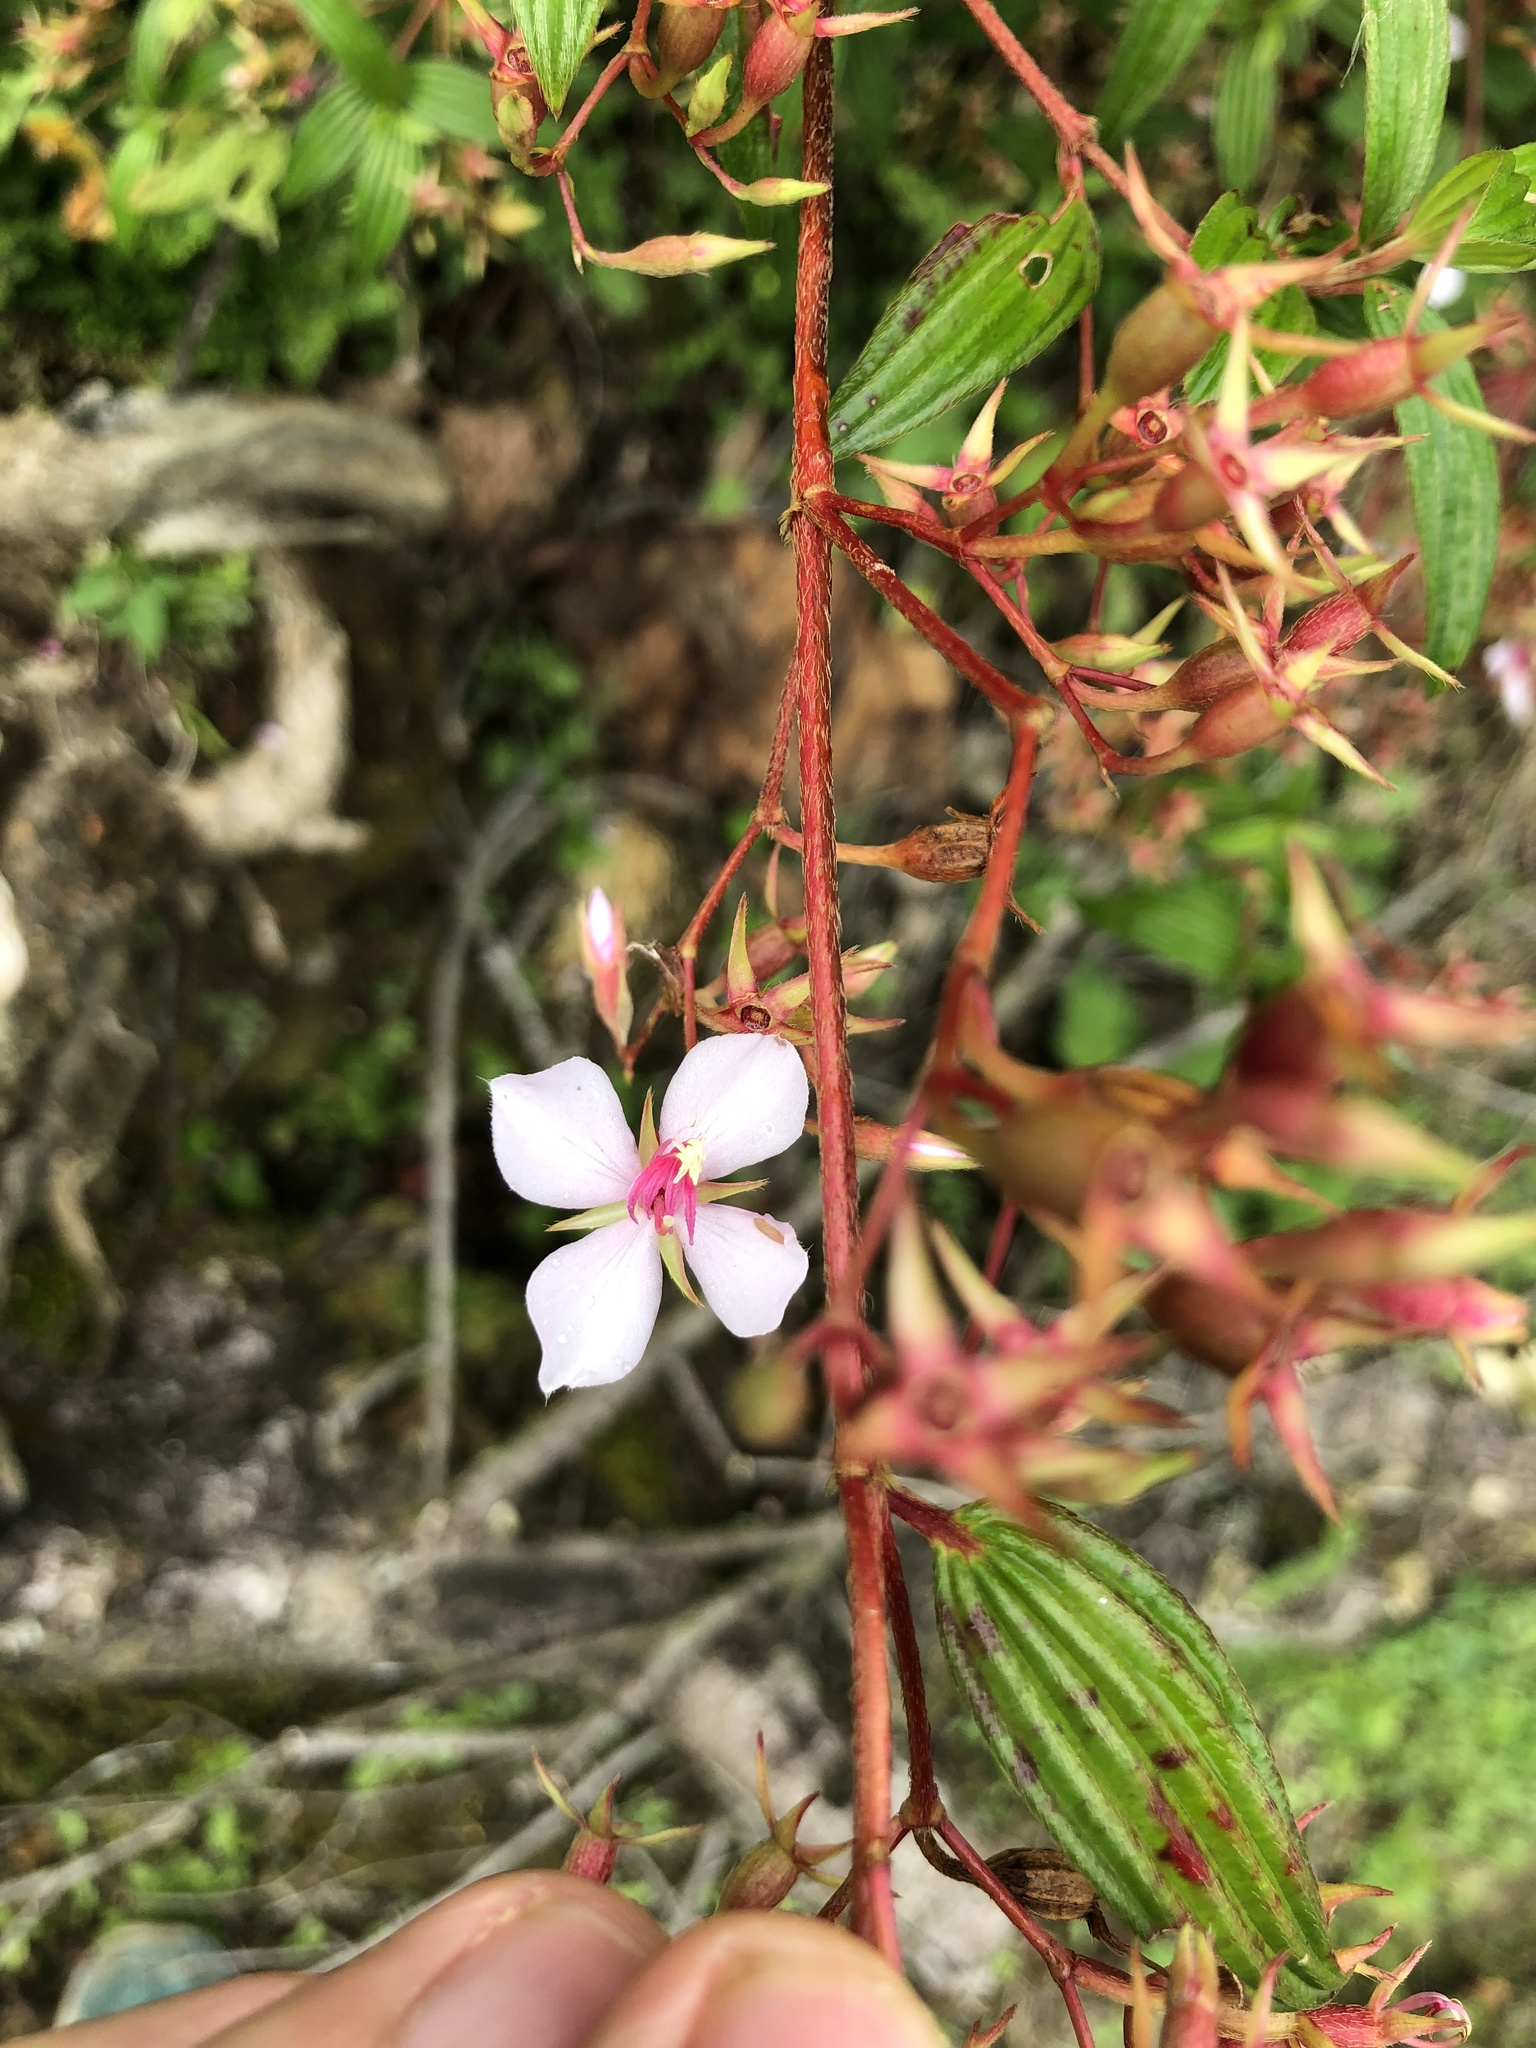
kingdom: Plantae
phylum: Tracheophyta
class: Magnoliopsida
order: Myrtales
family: Melastomataceae
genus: Monochaetum
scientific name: Monochaetum lineatum
